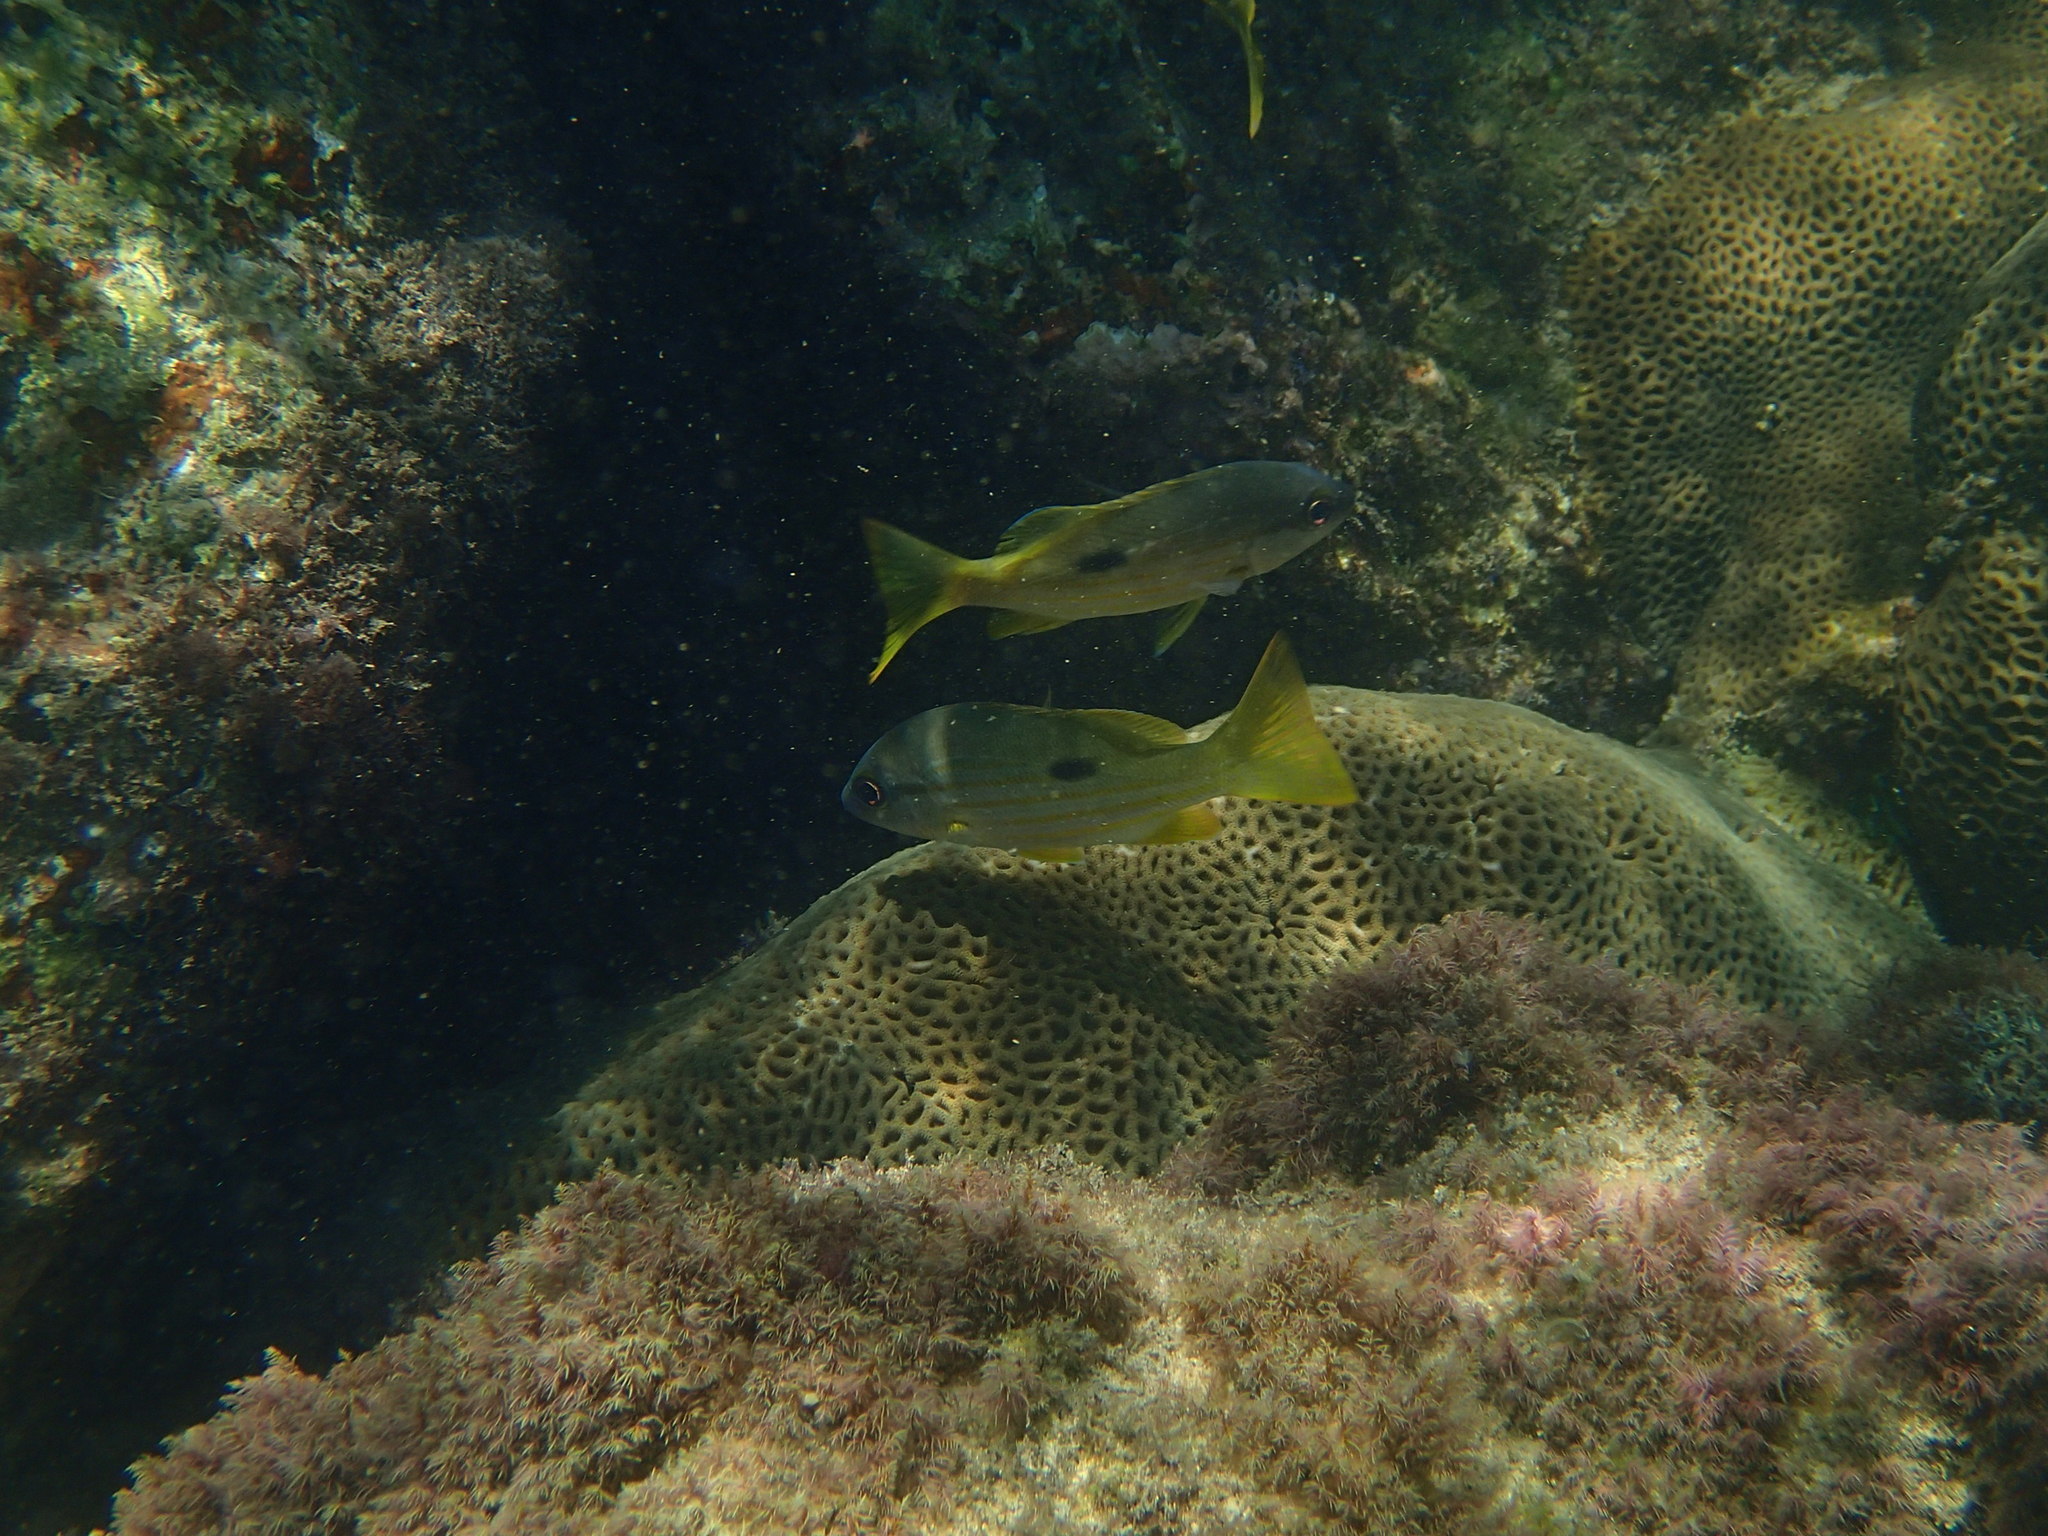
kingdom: Animalia
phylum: Chordata
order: Perciformes
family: Lutjanidae
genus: Lutjanus
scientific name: Lutjanus fulviflamma
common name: Blackspot snapper
